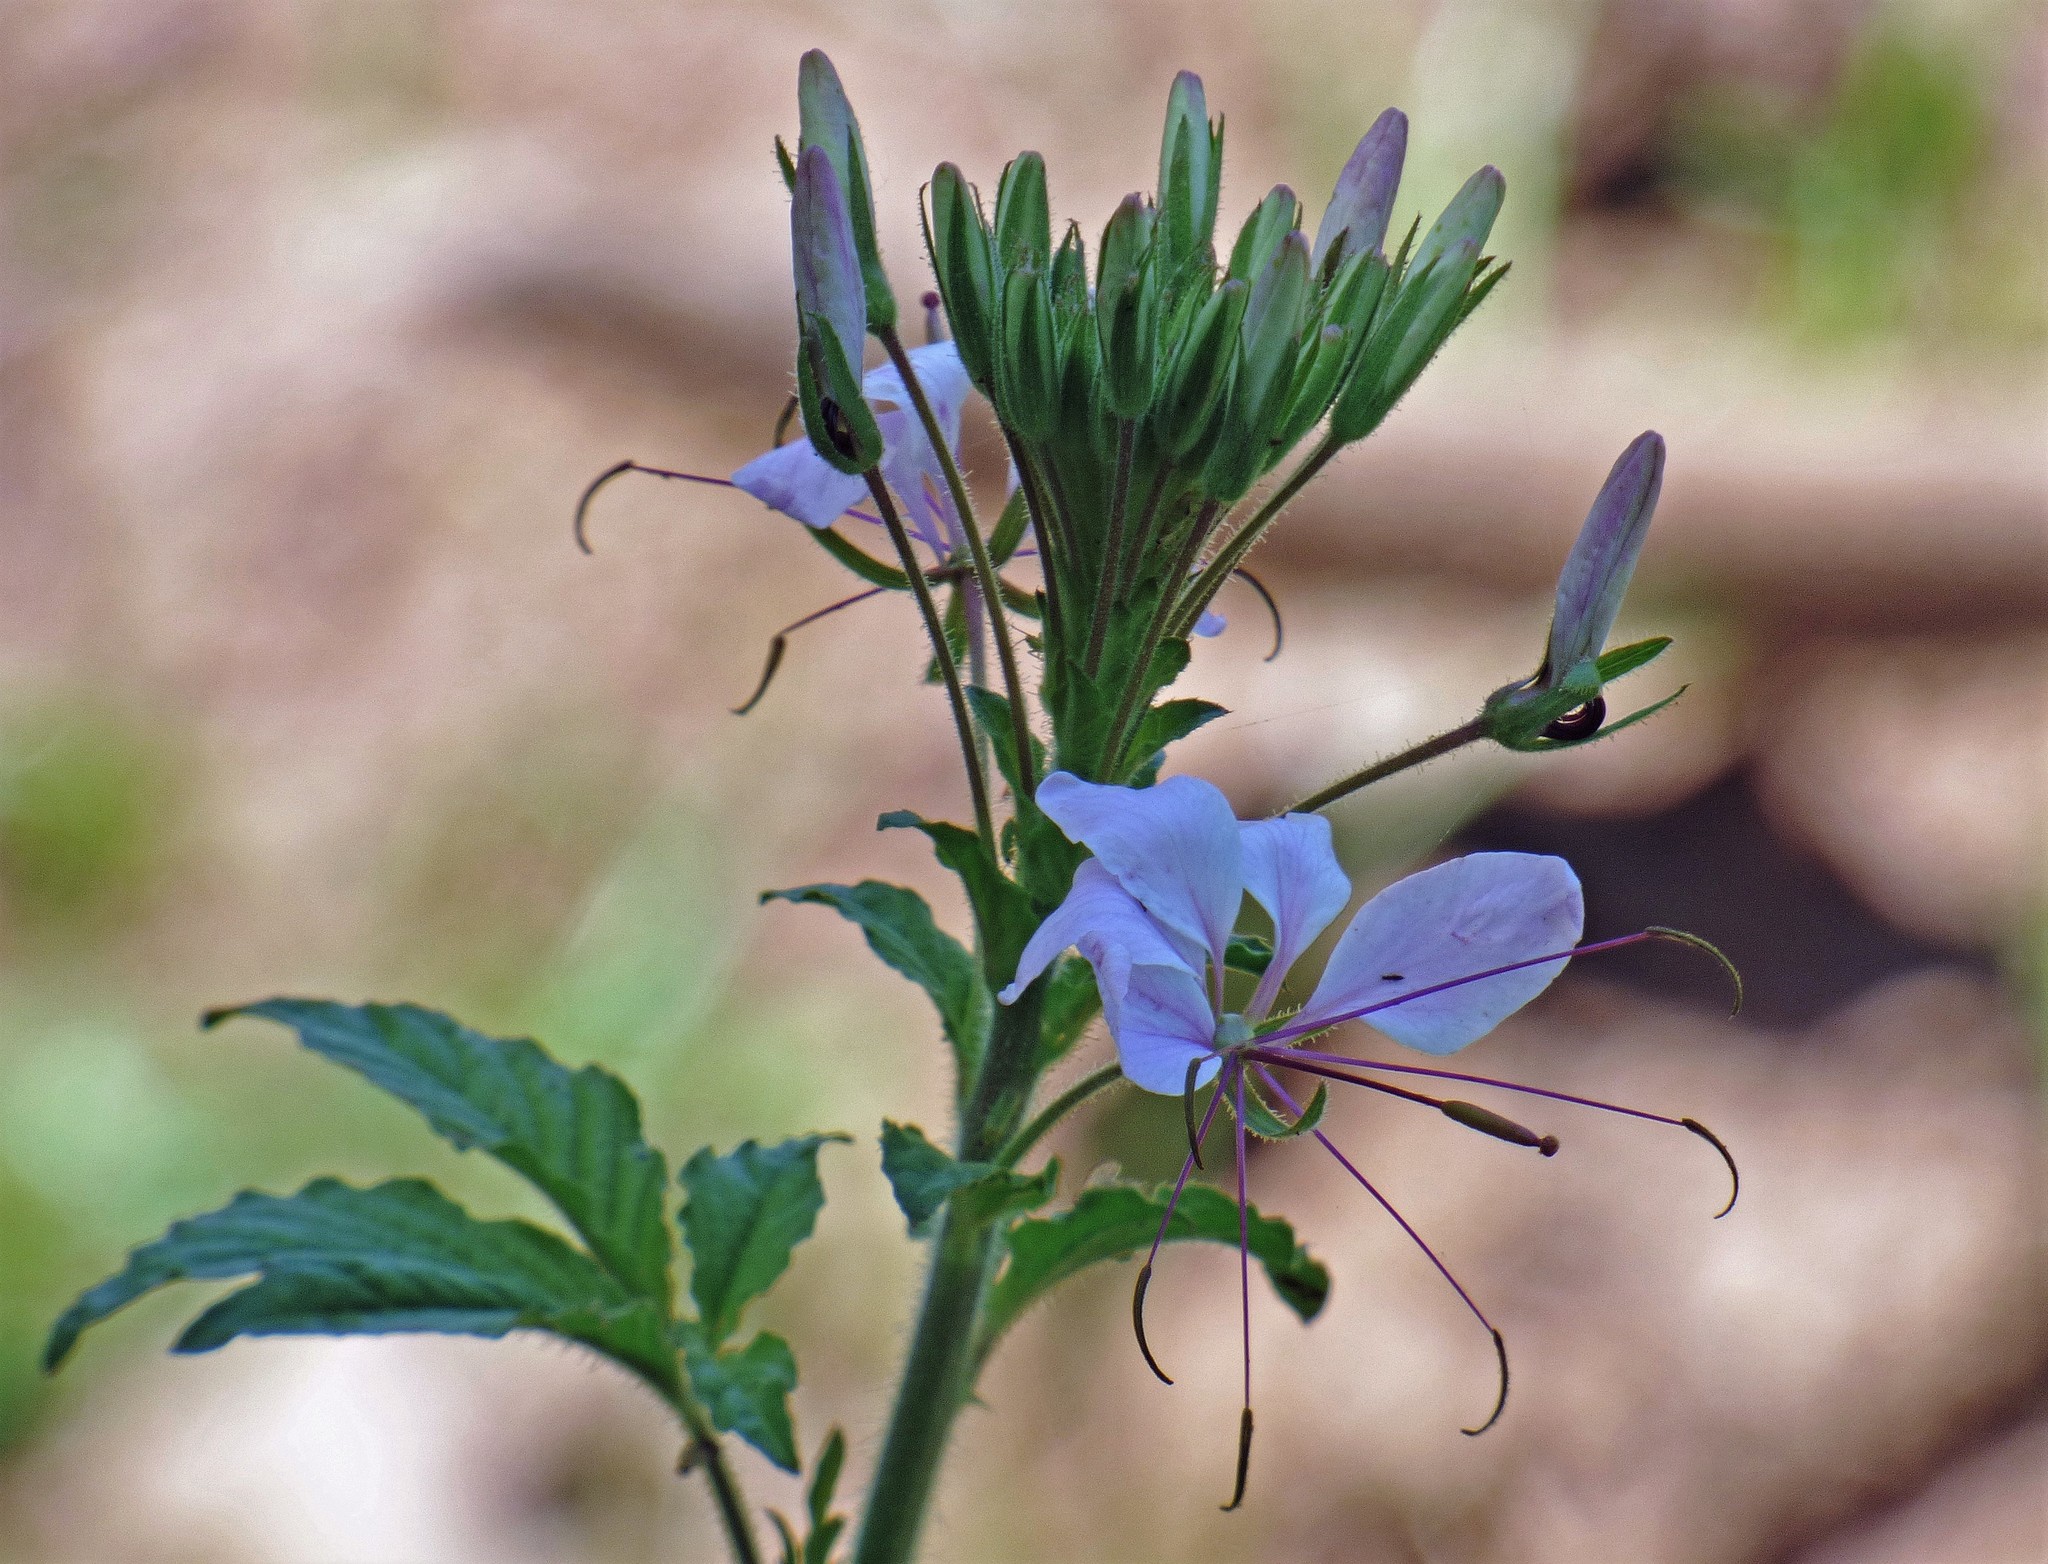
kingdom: Plantae
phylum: Tracheophyta
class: Magnoliopsida
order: Brassicales
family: Cleomaceae
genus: Tarenaya
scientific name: Tarenaya houtteana
